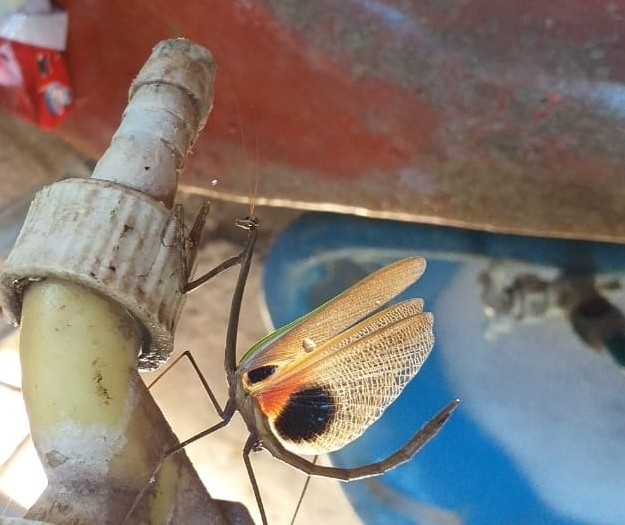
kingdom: Animalia
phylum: Arthropoda
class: Insecta
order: Mantodea
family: Mantidae
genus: Phasmomantis
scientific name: Phasmomantis sumichrasti
